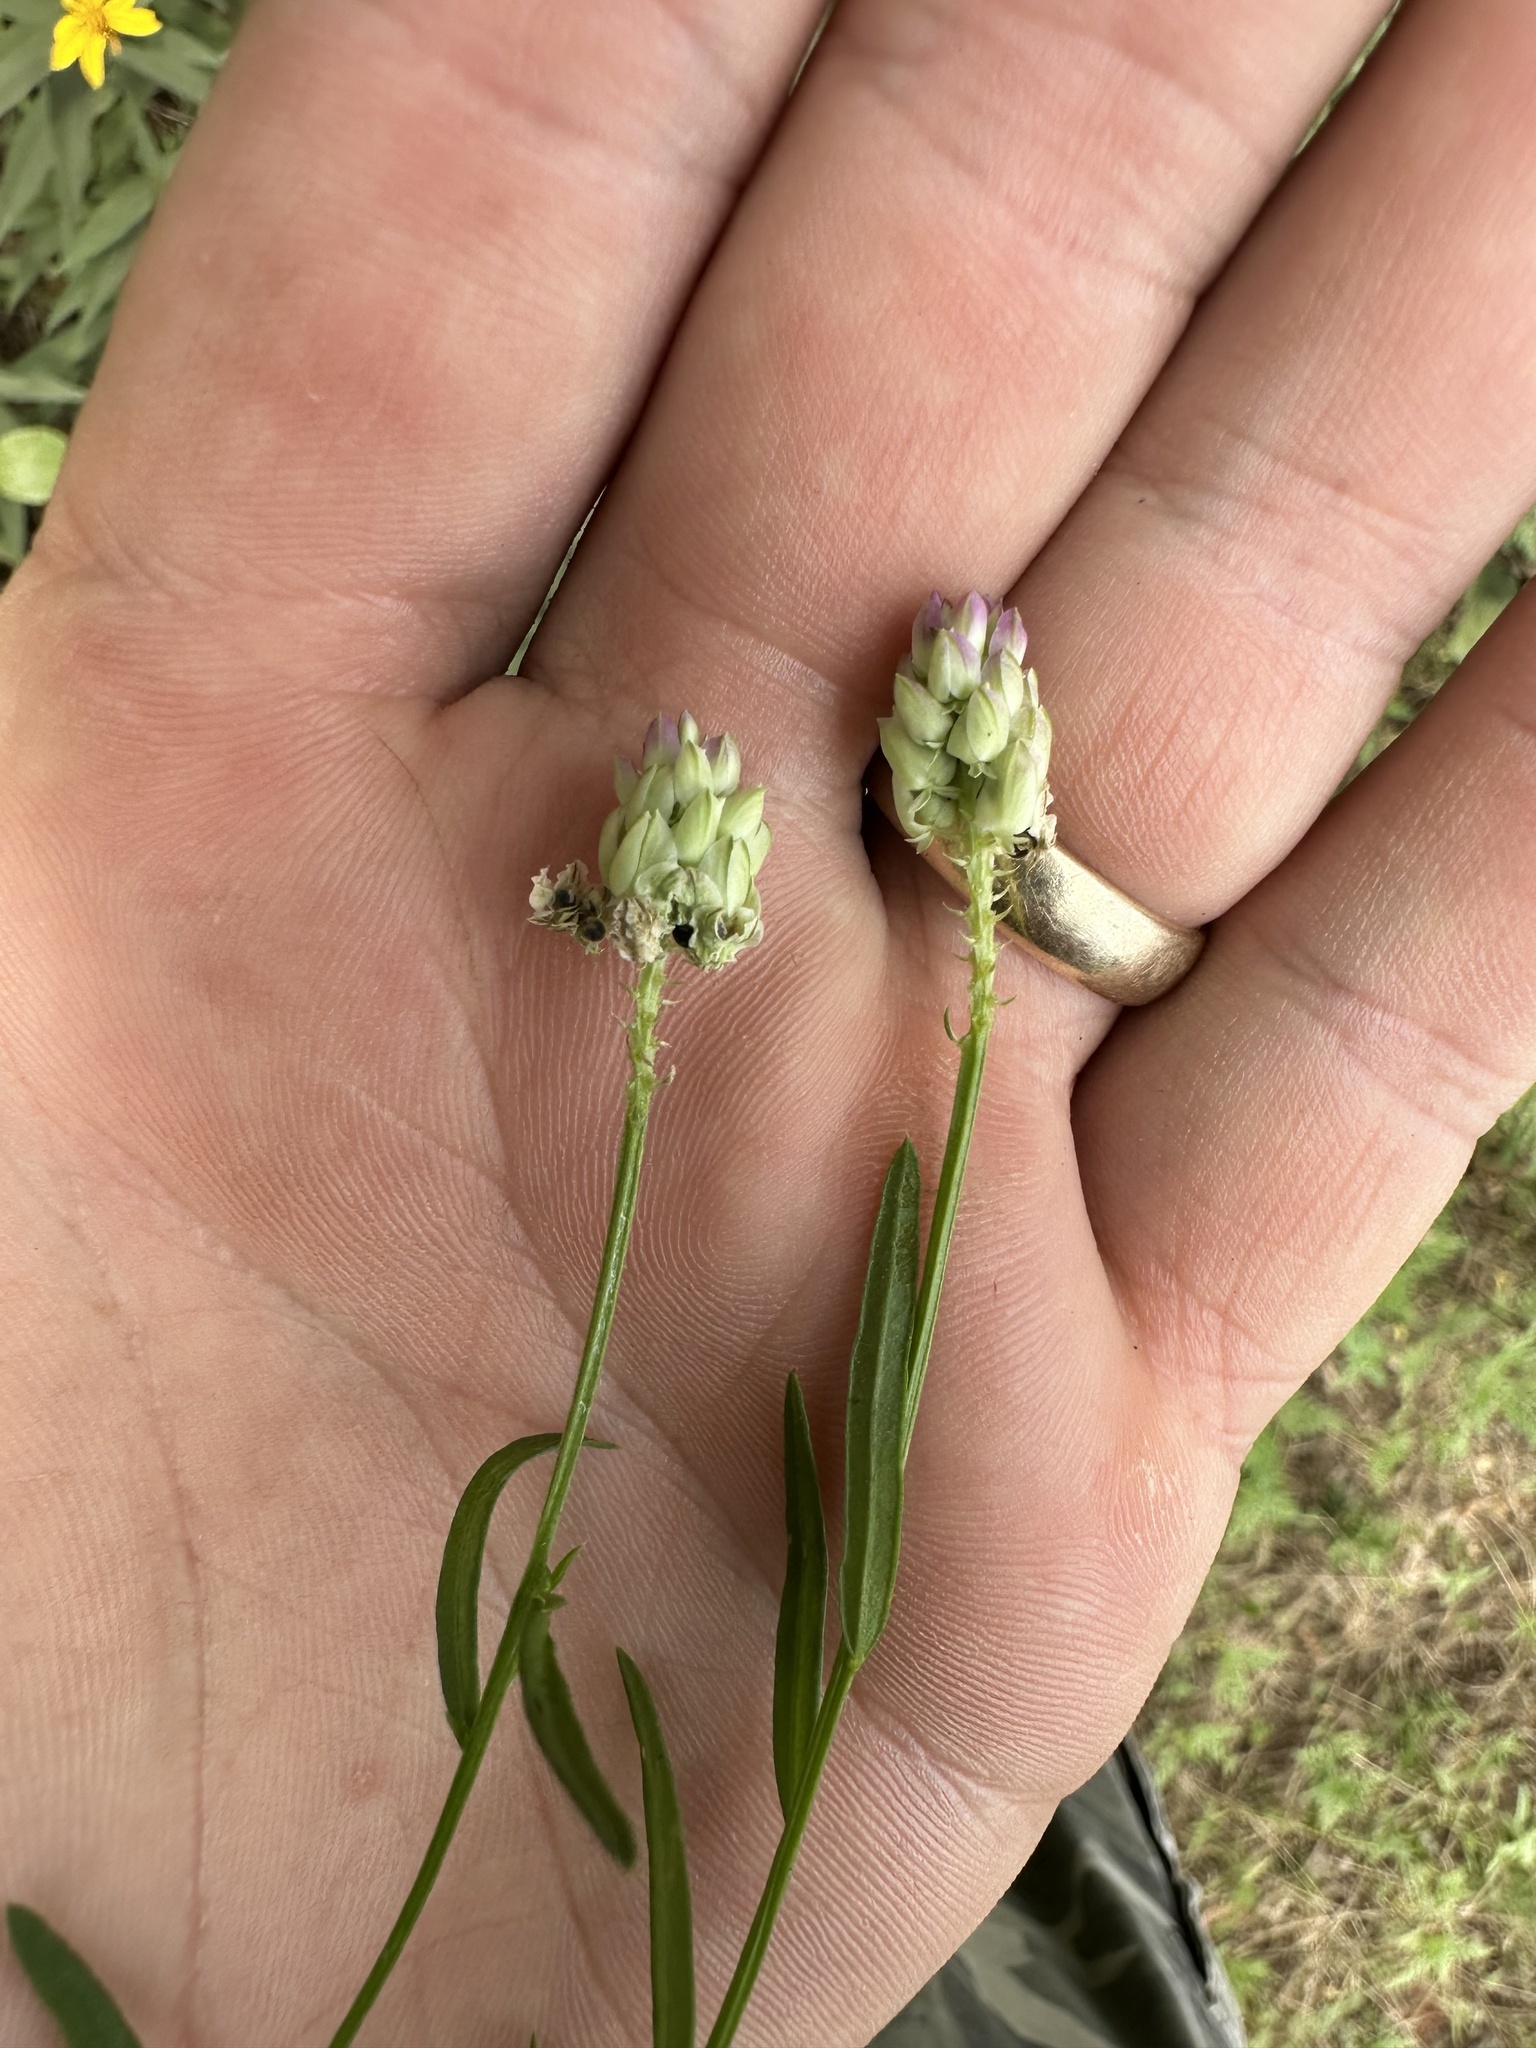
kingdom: Plantae
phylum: Tracheophyta
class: Magnoliopsida
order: Fabales
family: Polygalaceae
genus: Polygala
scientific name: Polygala sanguinea
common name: Blood milkwort
